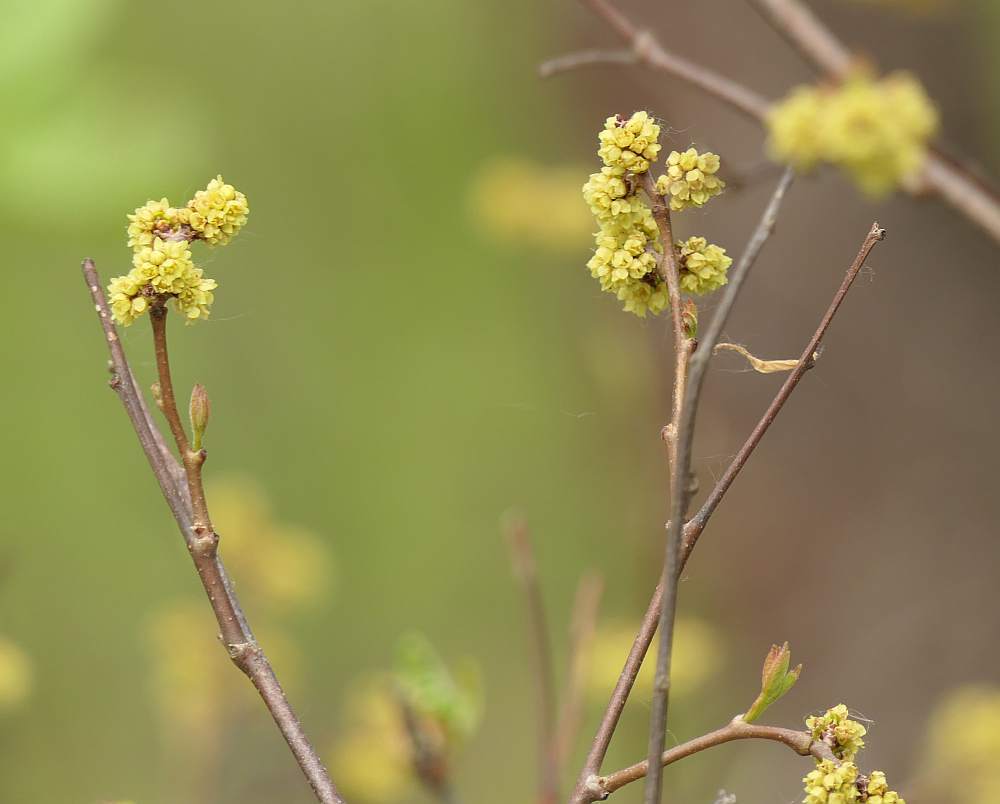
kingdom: Plantae
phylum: Tracheophyta
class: Magnoliopsida
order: Sapindales
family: Anacardiaceae
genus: Rhus
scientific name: Rhus aromatica
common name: Aromatic sumac
